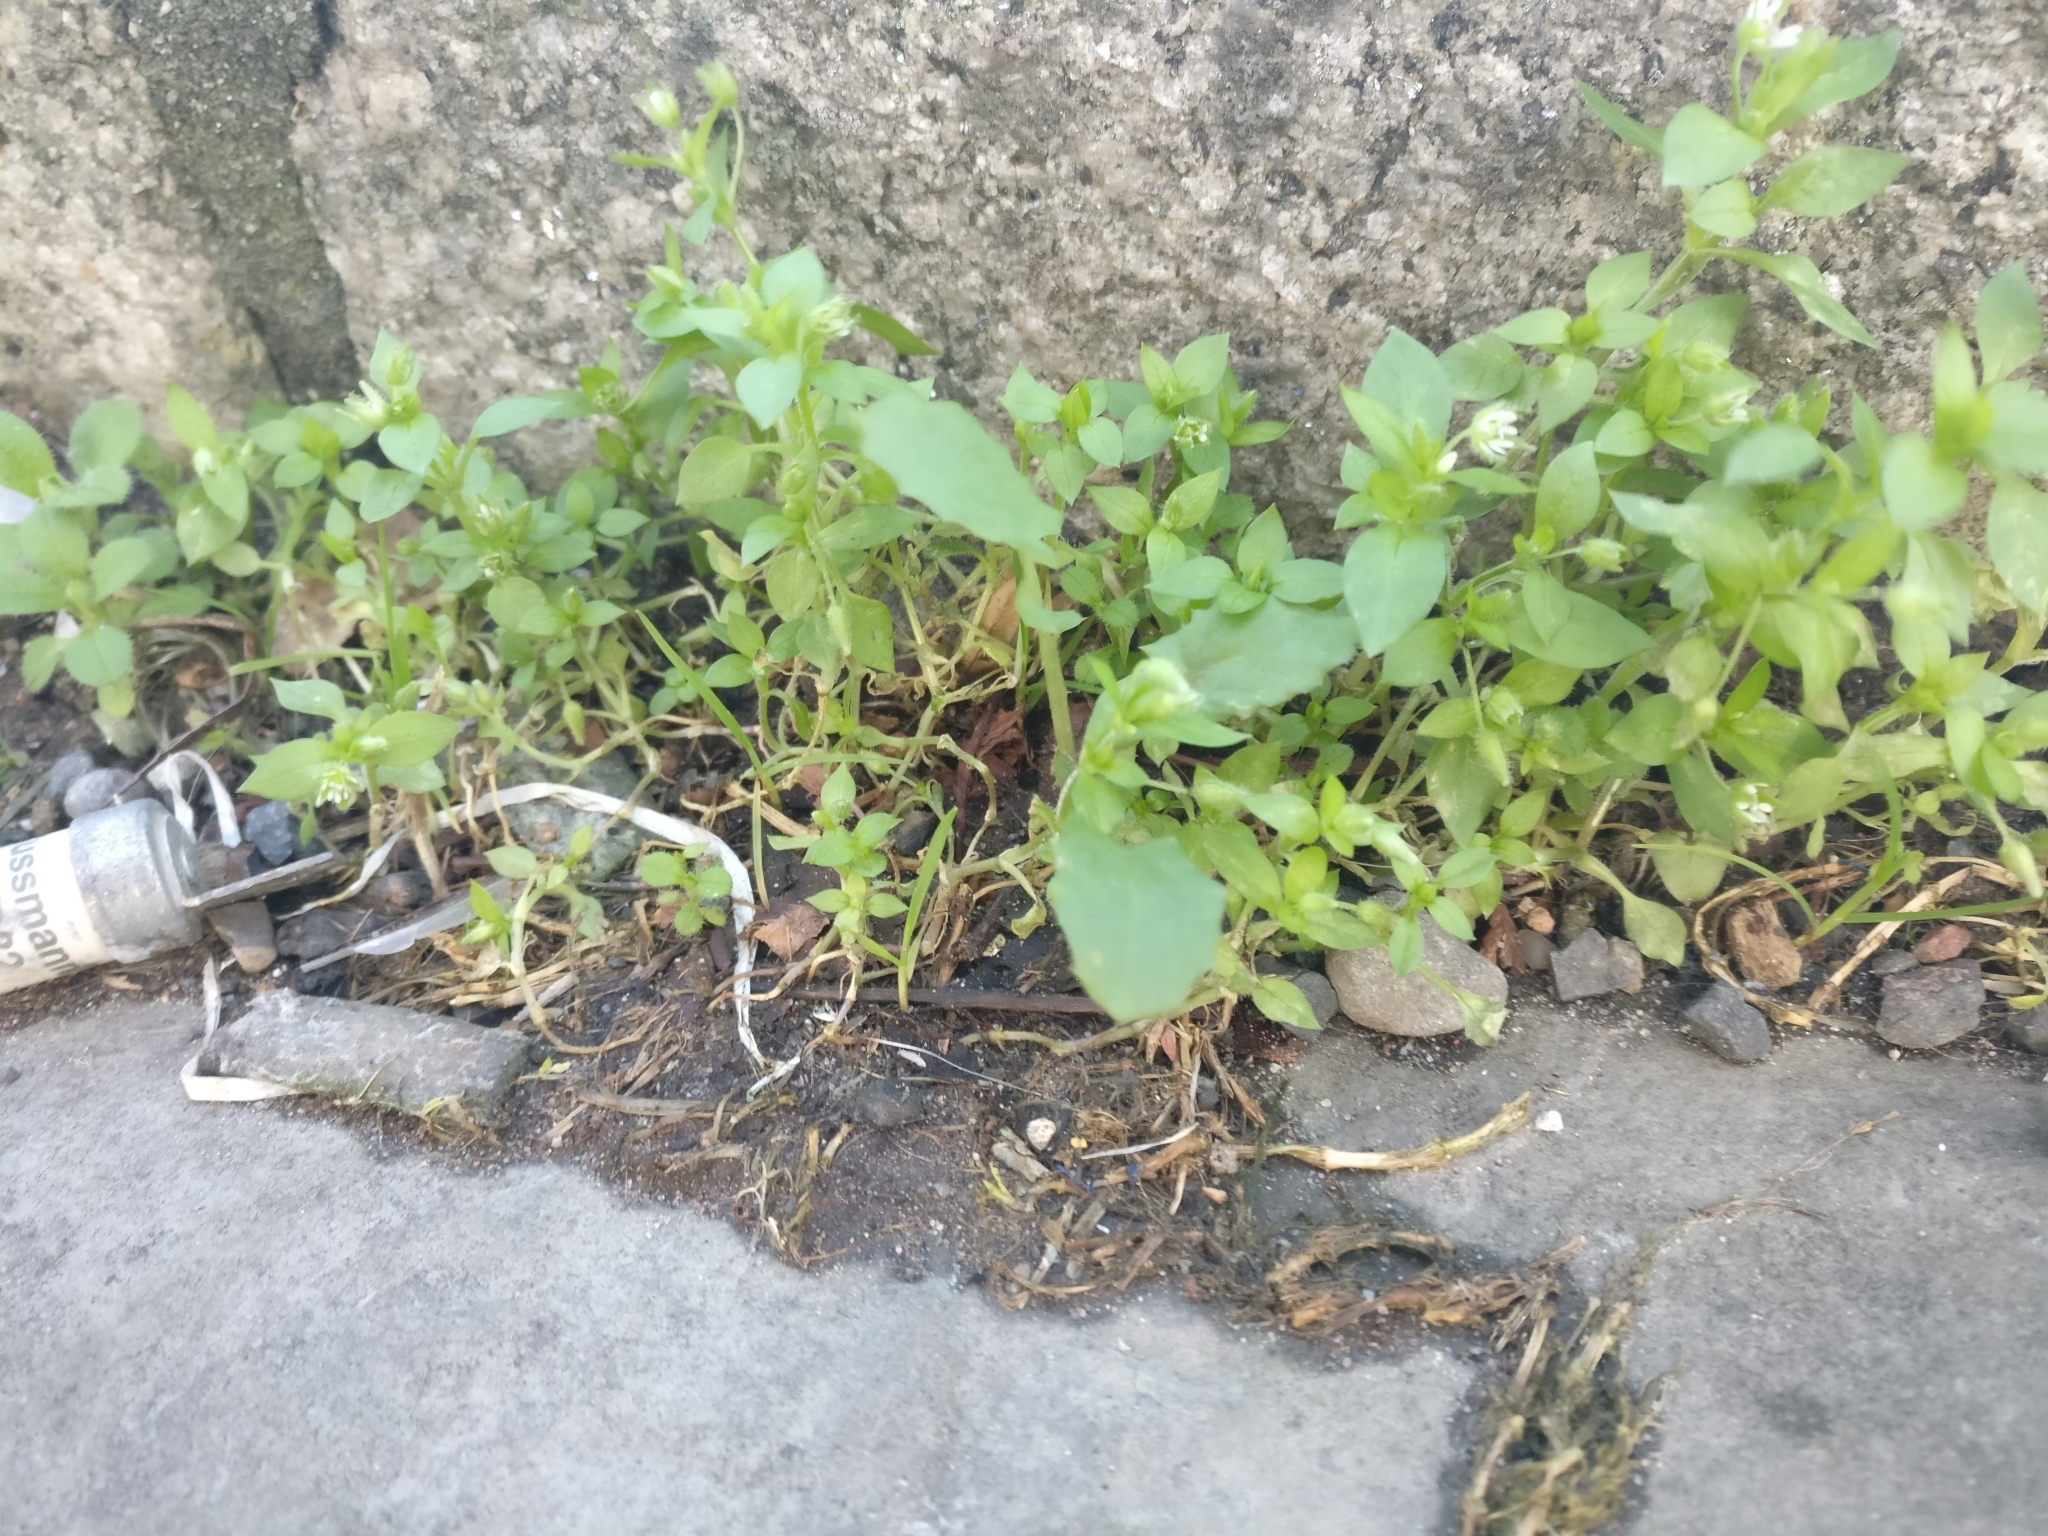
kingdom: Plantae
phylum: Tracheophyta
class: Magnoliopsida
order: Caryophyllales
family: Caryophyllaceae
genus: Stellaria
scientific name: Stellaria media
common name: Common chickweed
